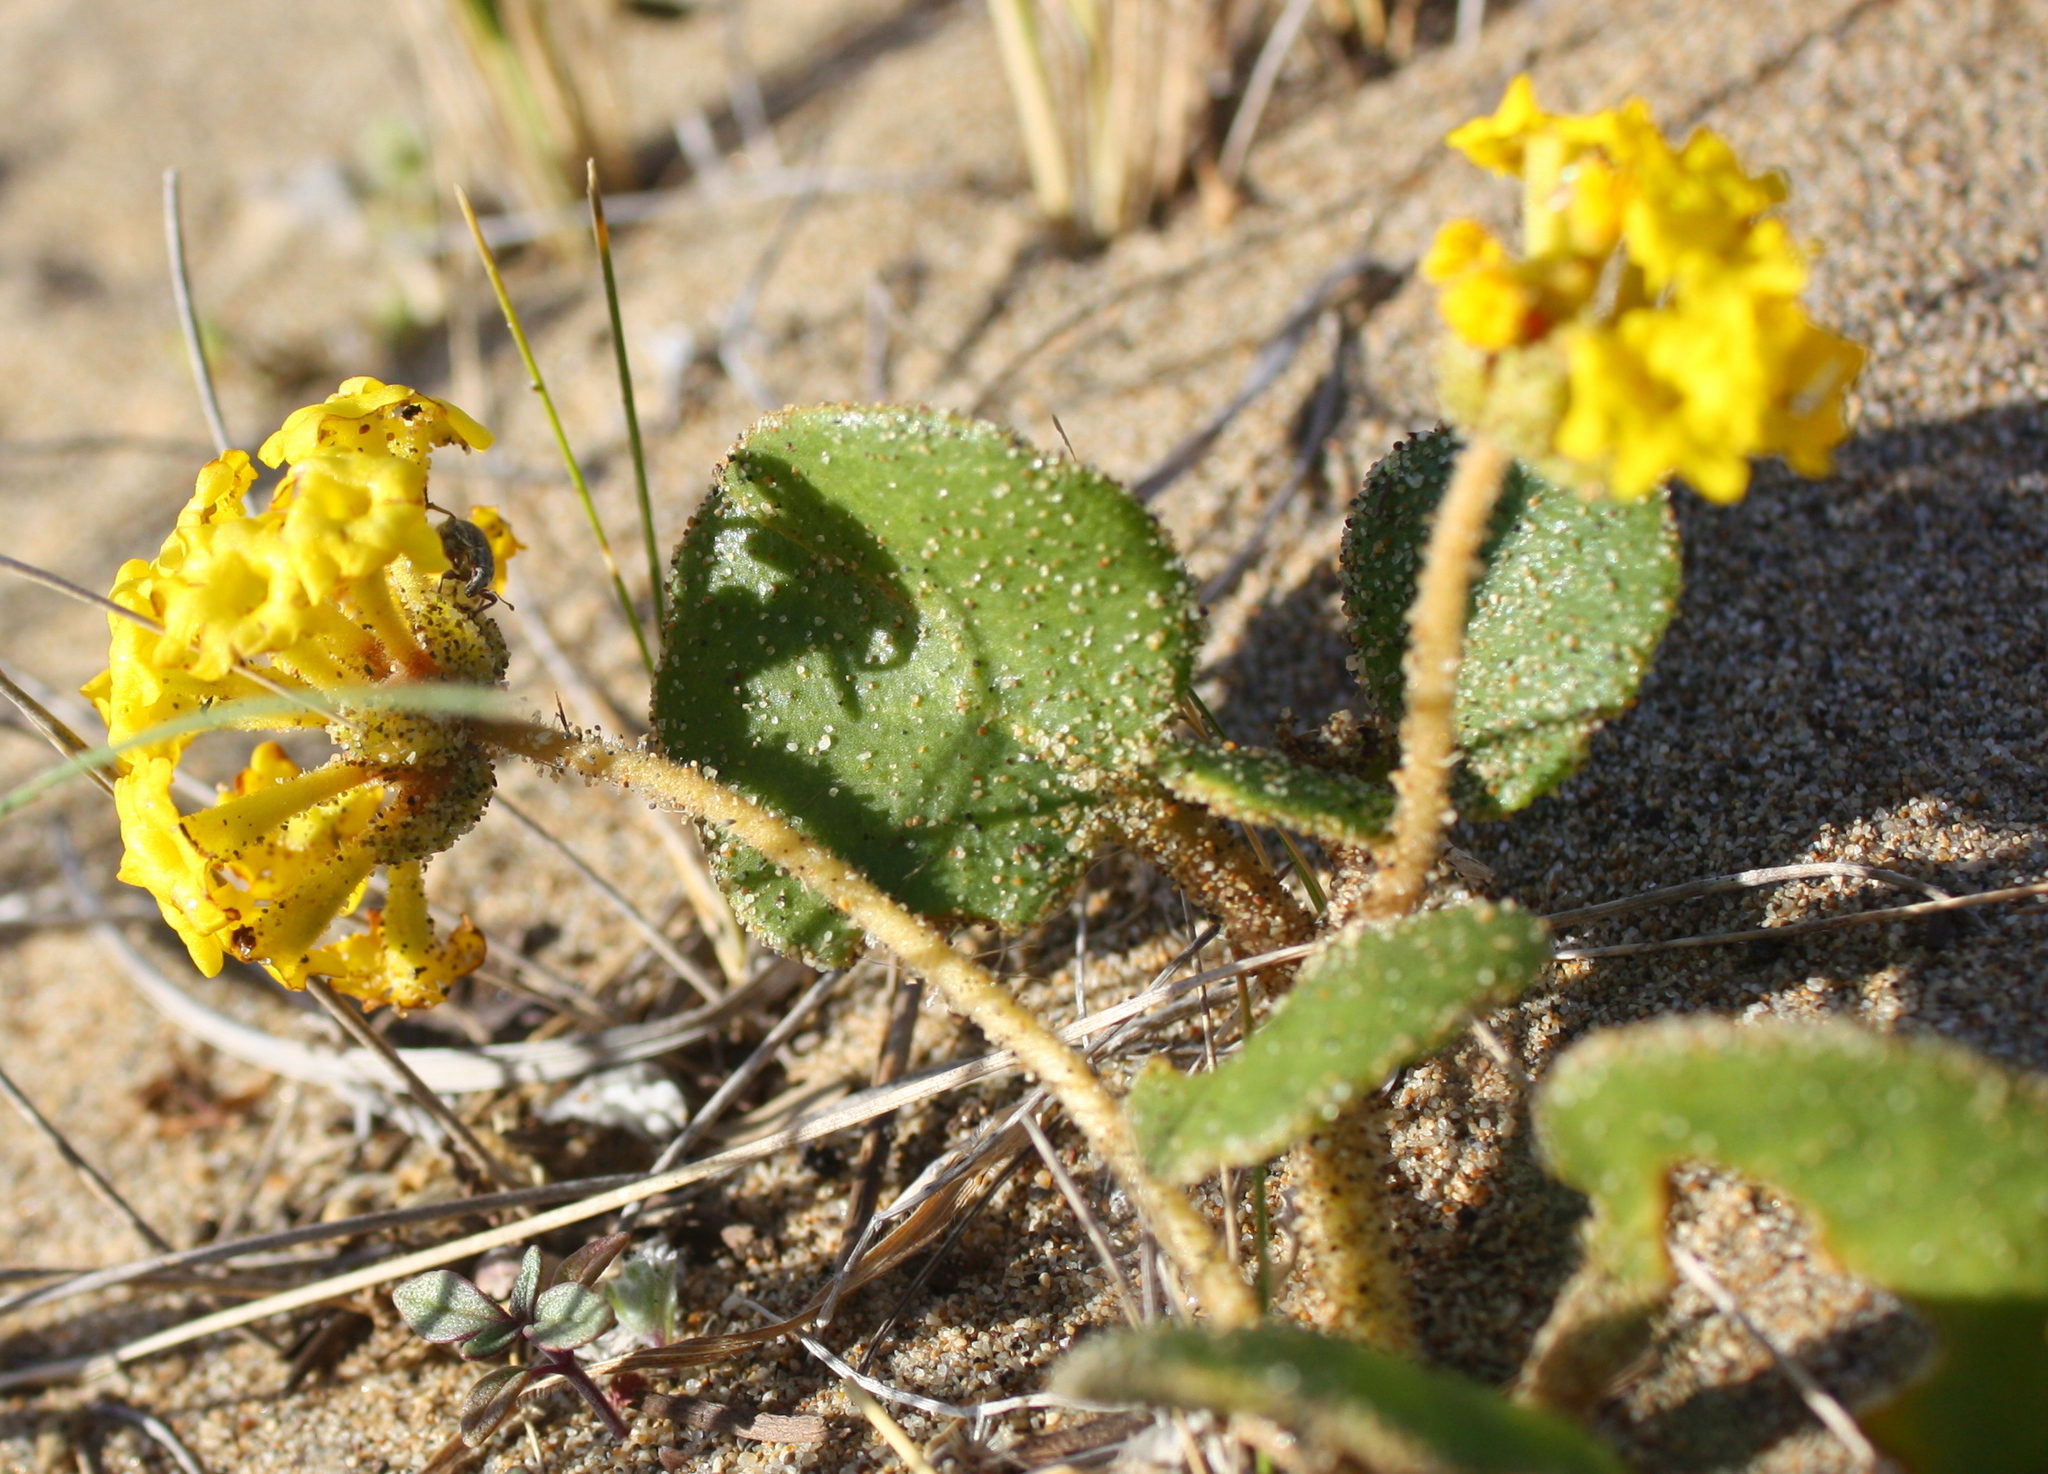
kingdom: Plantae
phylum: Tracheophyta
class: Magnoliopsida
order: Caryophyllales
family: Nyctaginaceae
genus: Abronia
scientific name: Abronia latifolia
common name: Yellow sand-verbena
